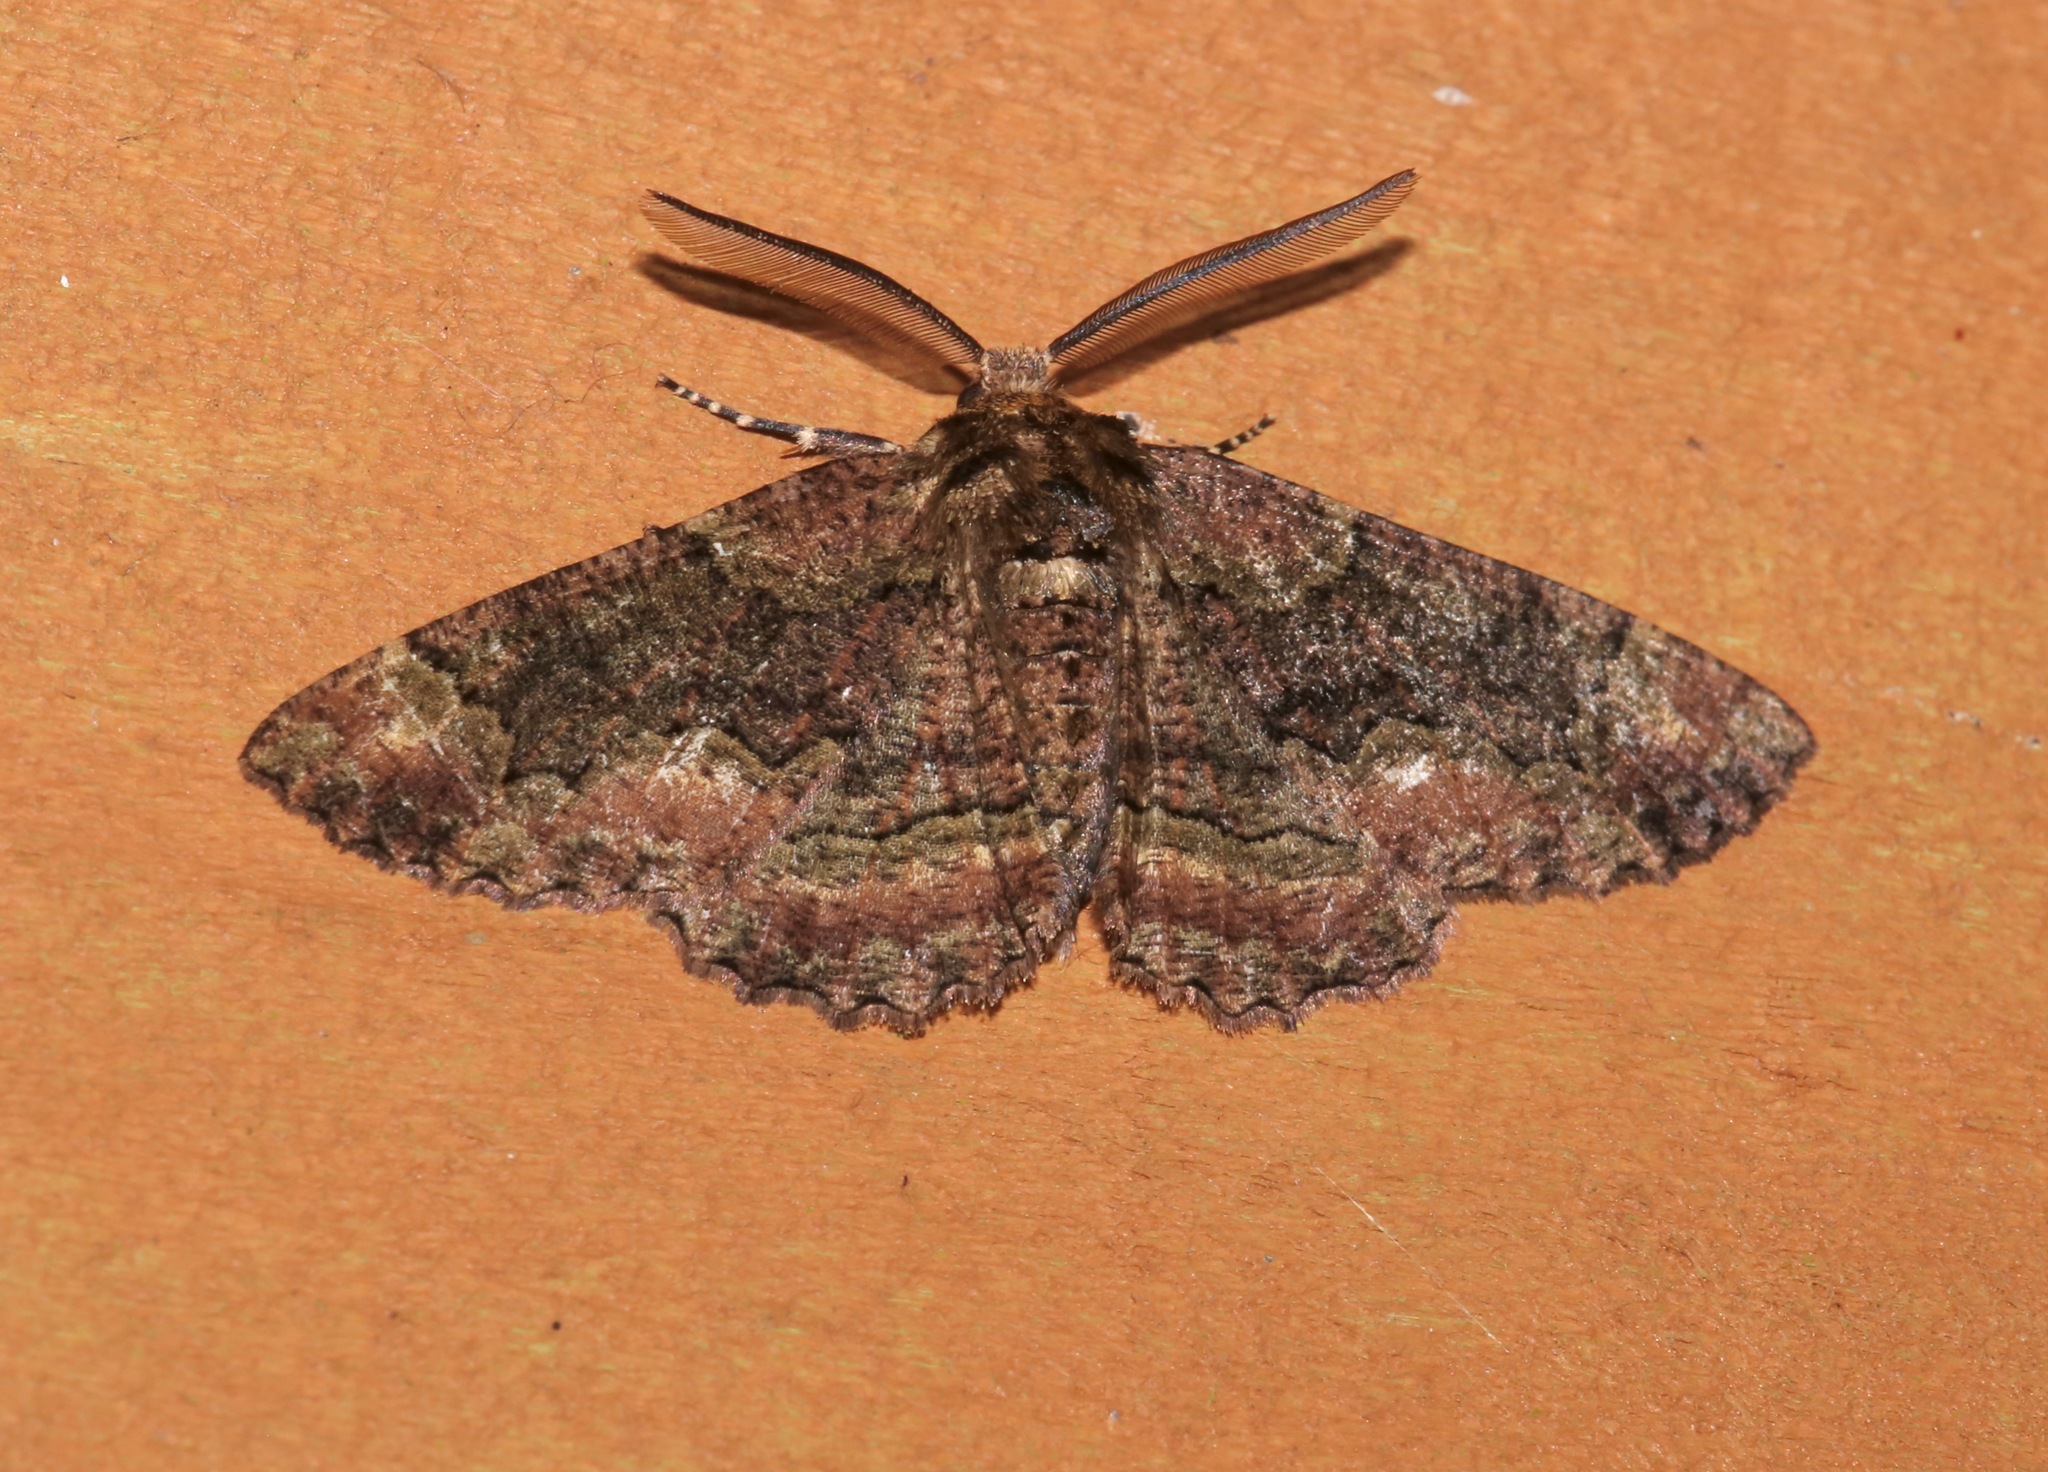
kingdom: Animalia
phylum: Arthropoda
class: Insecta
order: Lepidoptera
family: Geometridae
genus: Phaeoura
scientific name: Phaeoura quernaria
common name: Oak beauty
